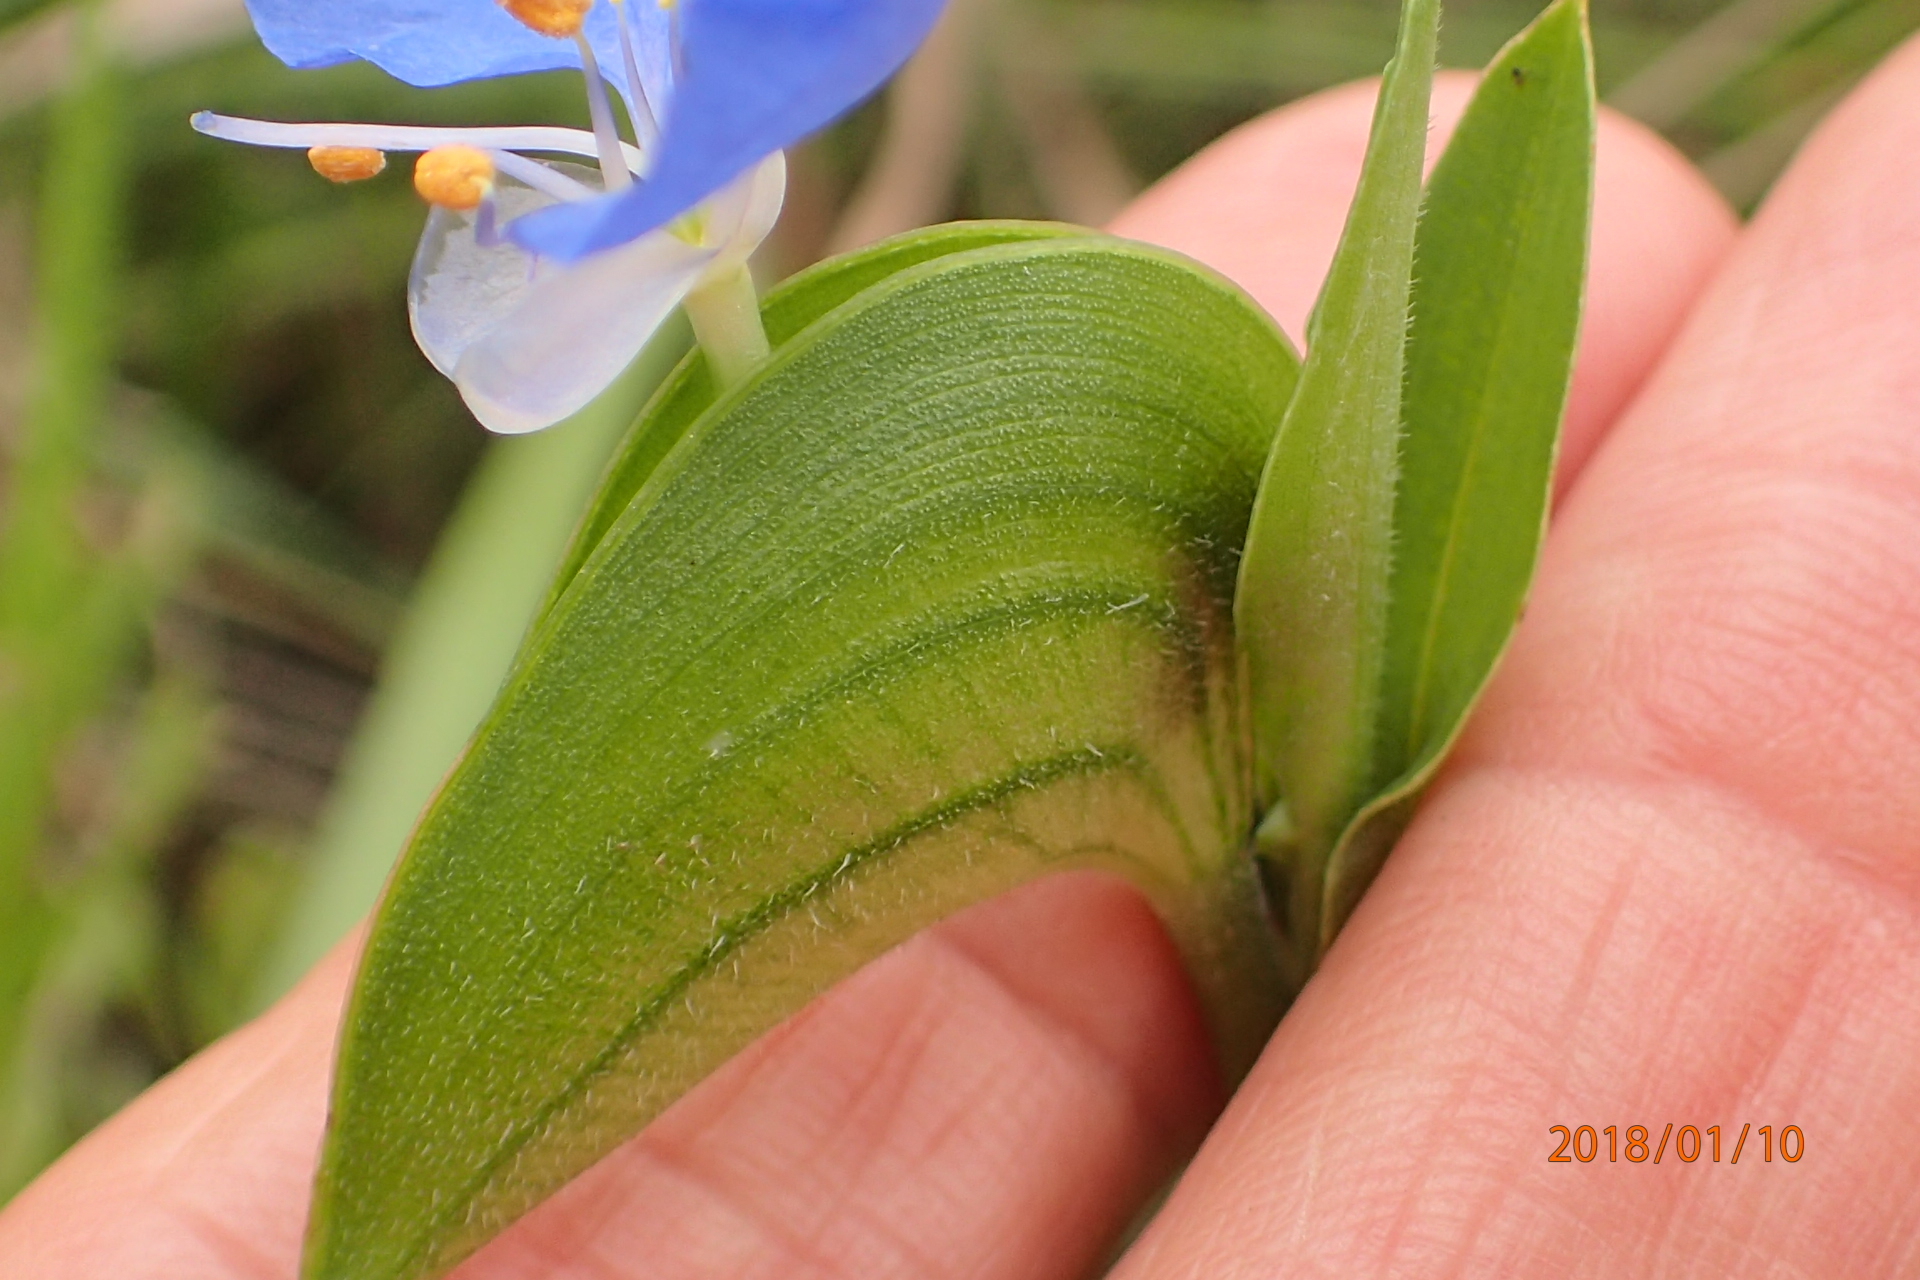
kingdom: Plantae
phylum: Tracheophyta
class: Liliopsida
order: Commelinales
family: Commelinaceae
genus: Commelina
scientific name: Commelina eckloniana
